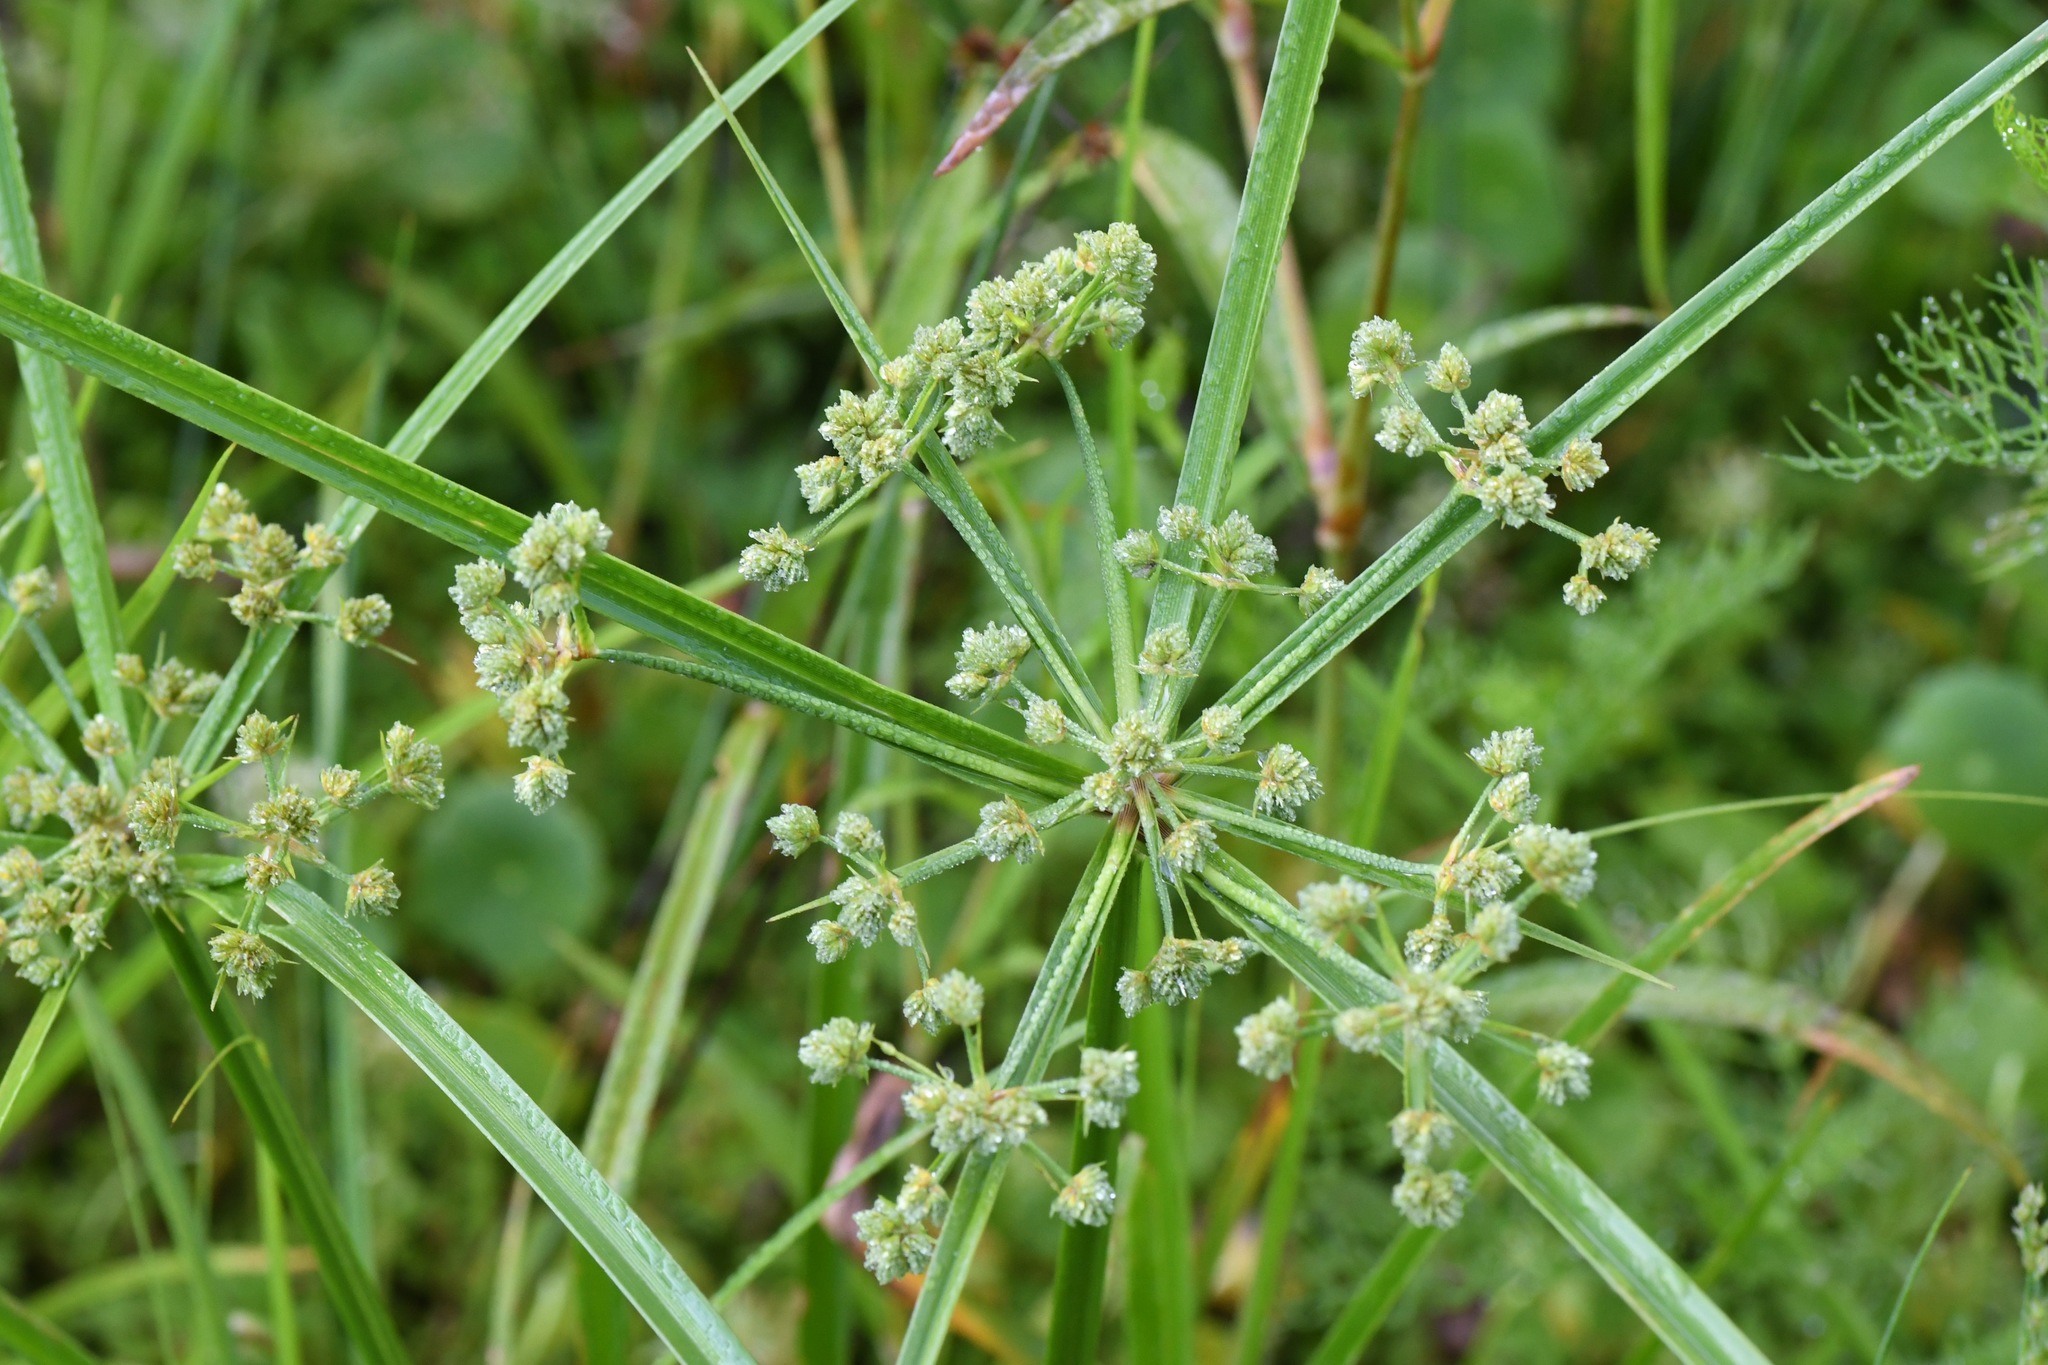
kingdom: Plantae
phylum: Tracheophyta
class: Liliopsida
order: Poales
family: Cyperaceae
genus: Cyperus
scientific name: Cyperus virens
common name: Green flatsedge
